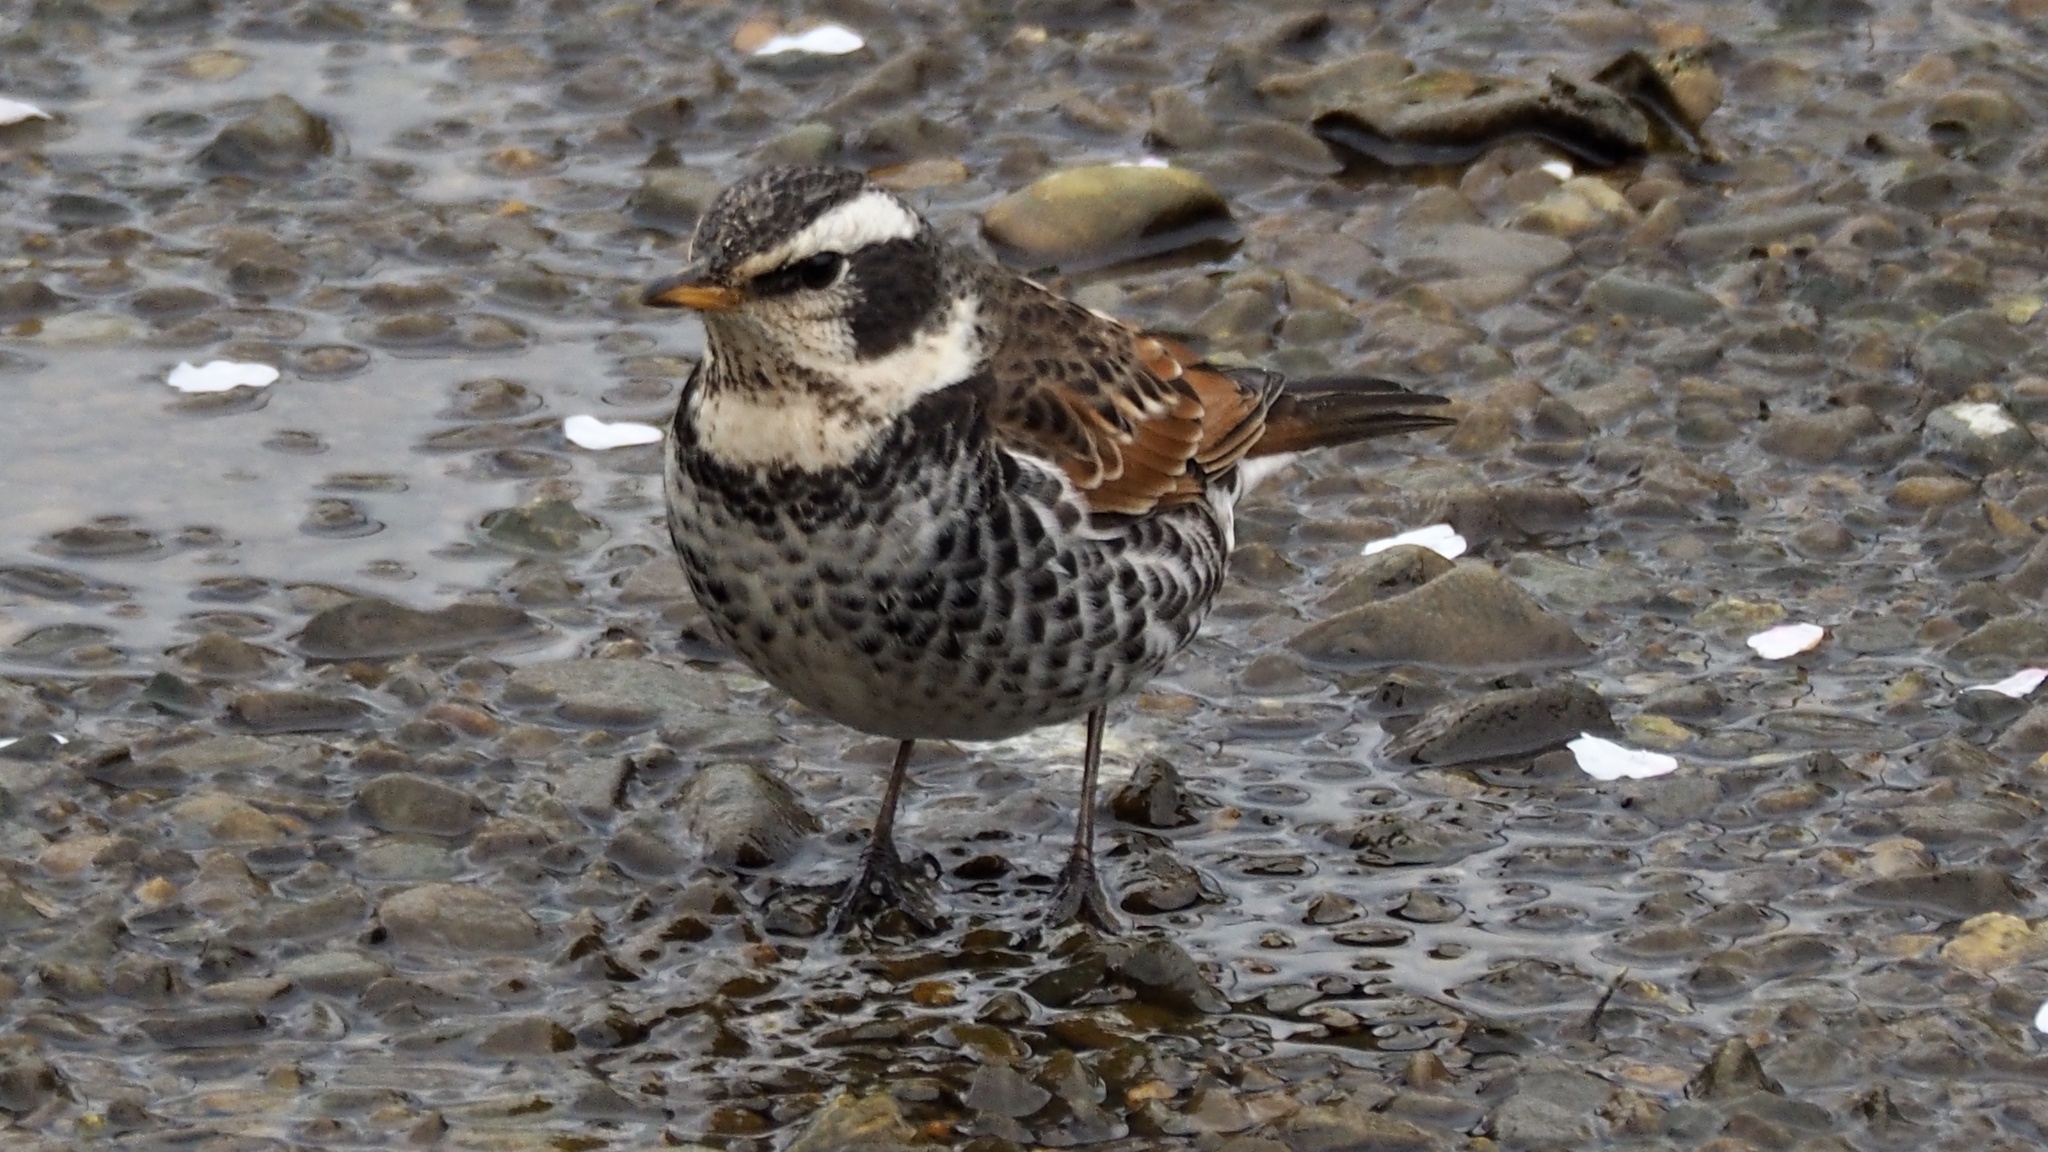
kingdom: Animalia
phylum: Chordata
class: Aves
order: Passeriformes
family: Turdidae
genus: Turdus
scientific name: Turdus eunomus
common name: Dusky thrush
